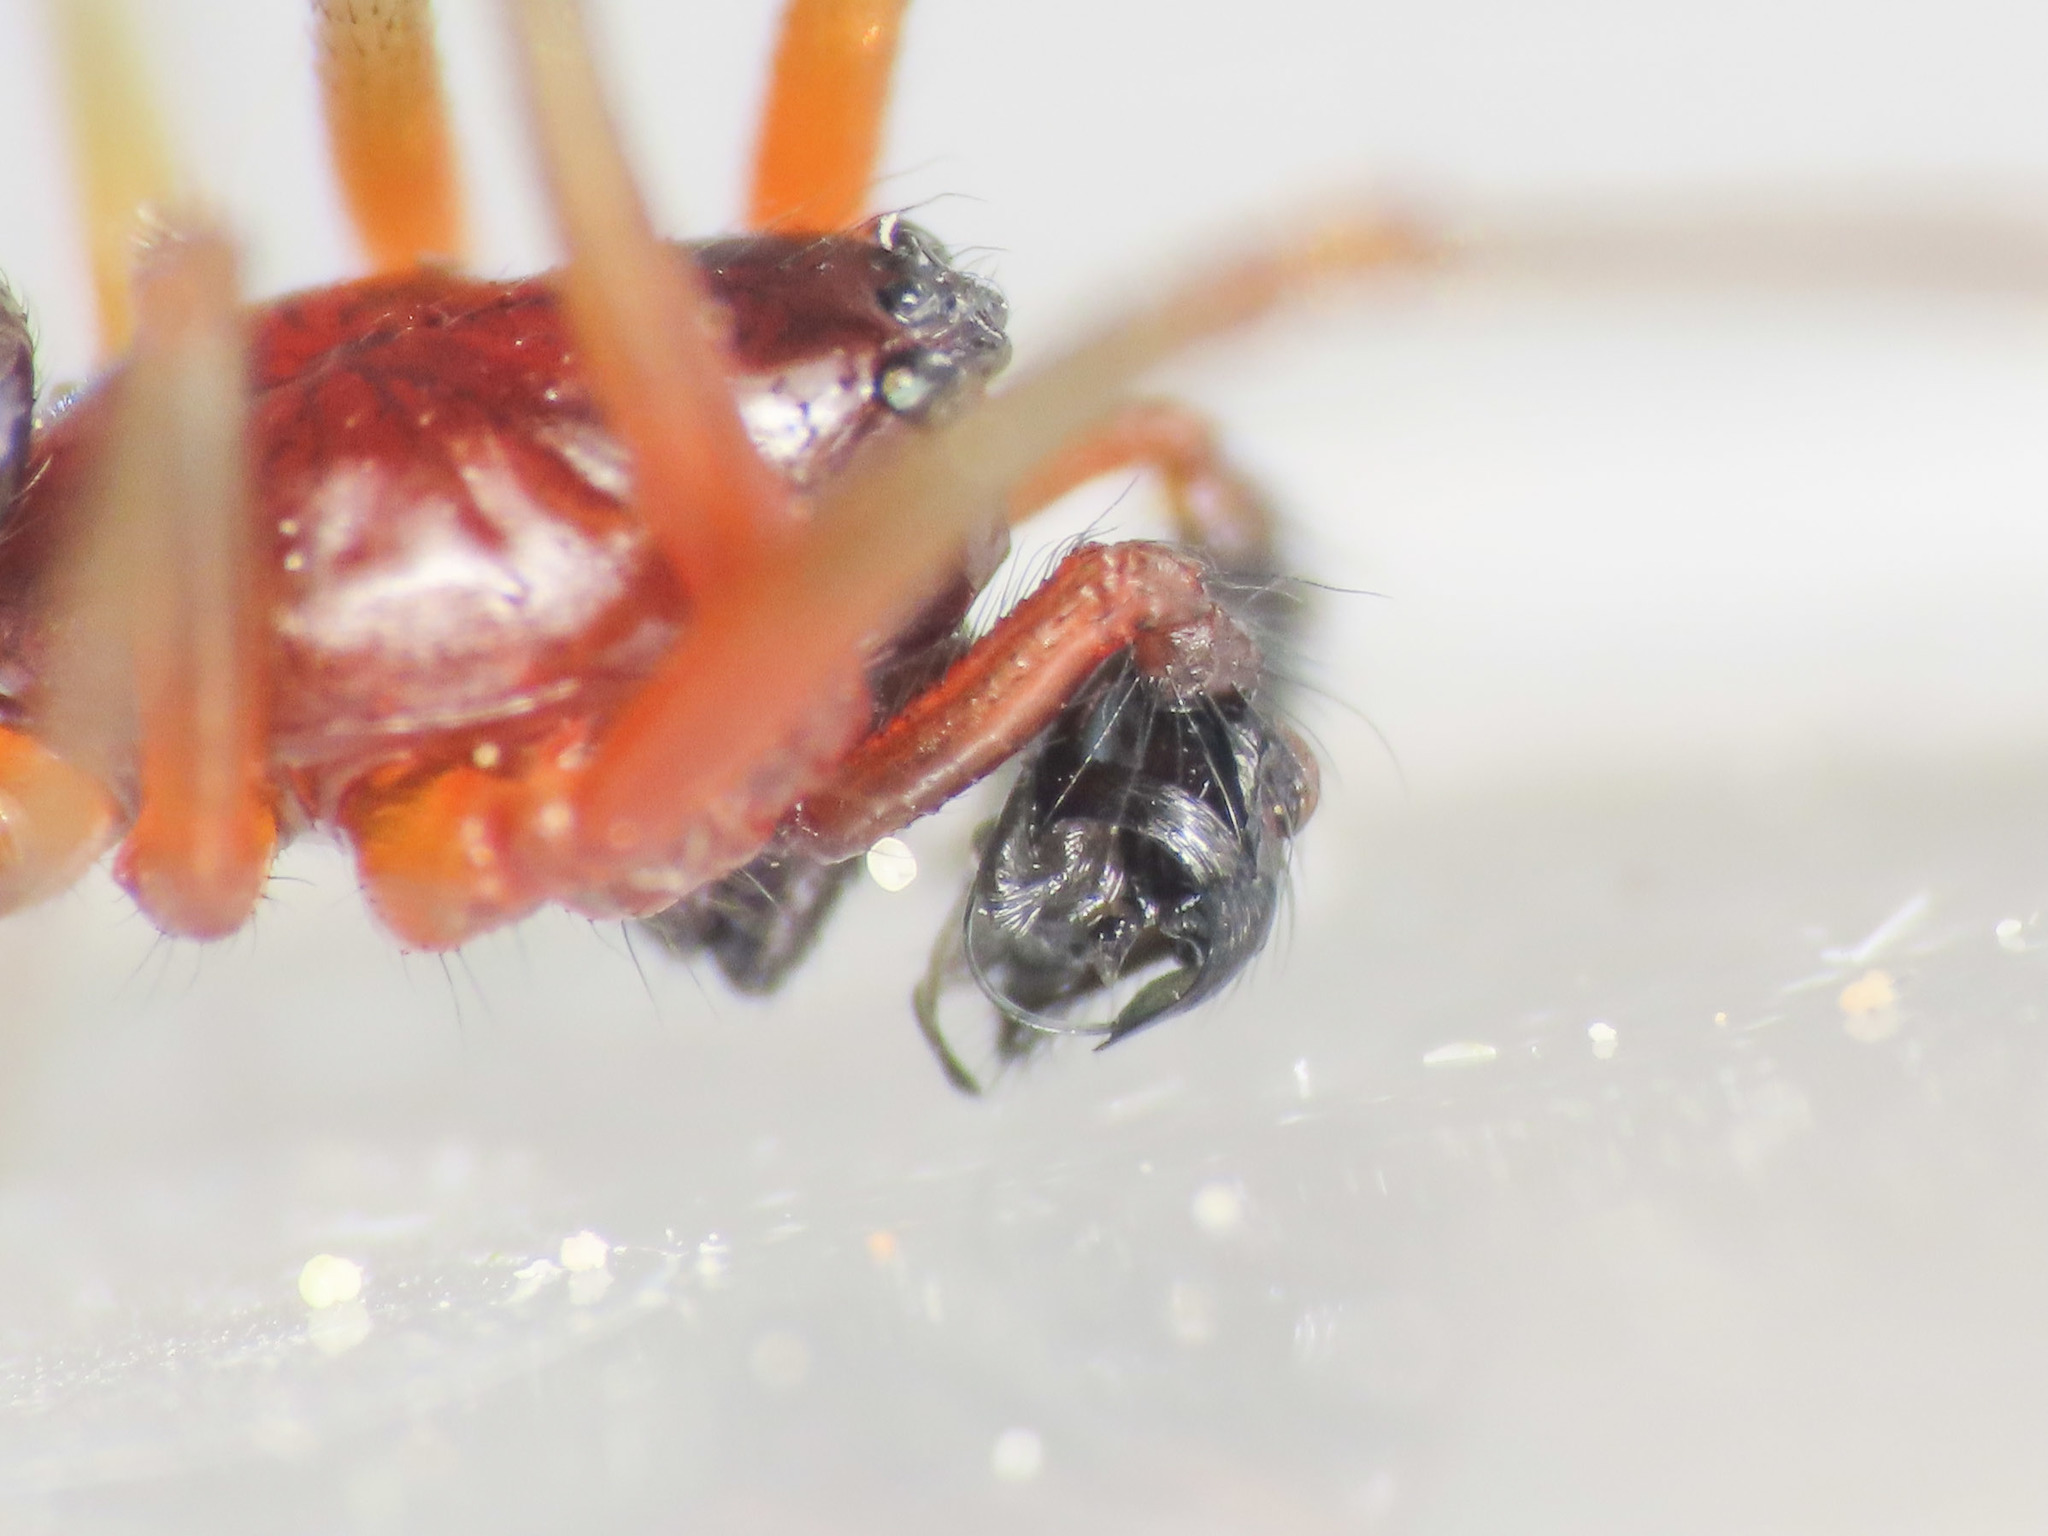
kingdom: Animalia
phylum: Arthropoda
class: Arachnida
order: Araneae
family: Linyphiidae
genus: Frontinellina
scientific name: Frontinellina frutetorum
